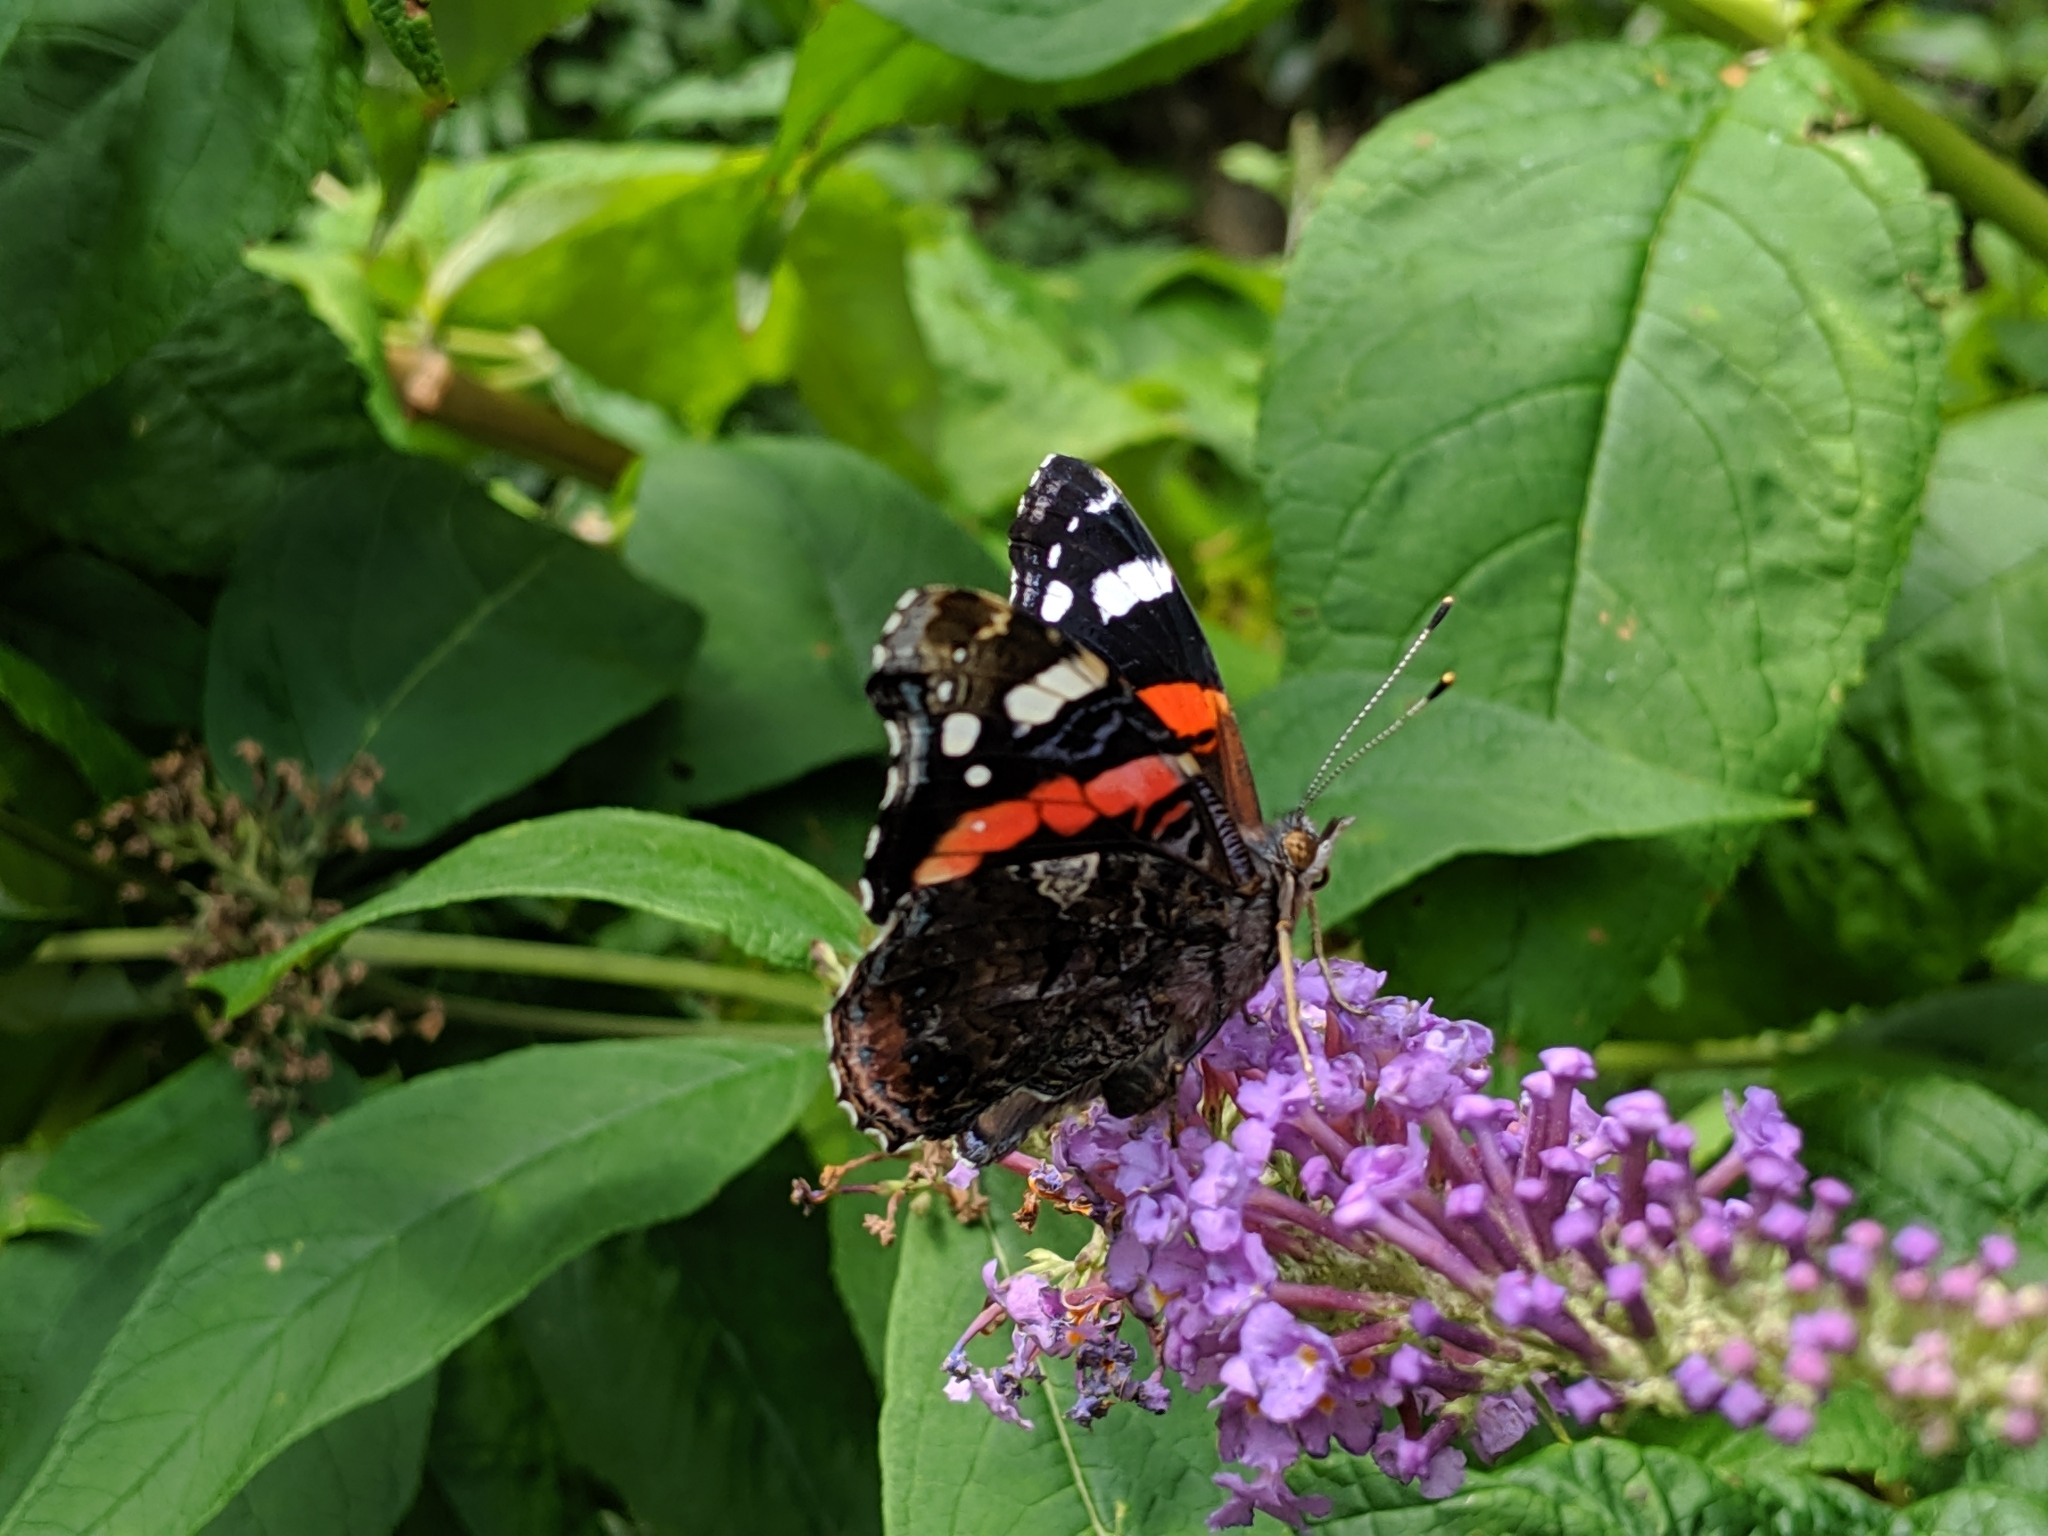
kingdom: Animalia
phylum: Arthropoda
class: Insecta
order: Lepidoptera
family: Nymphalidae
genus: Vanessa
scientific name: Vanessa atalanta
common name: Red admiral
